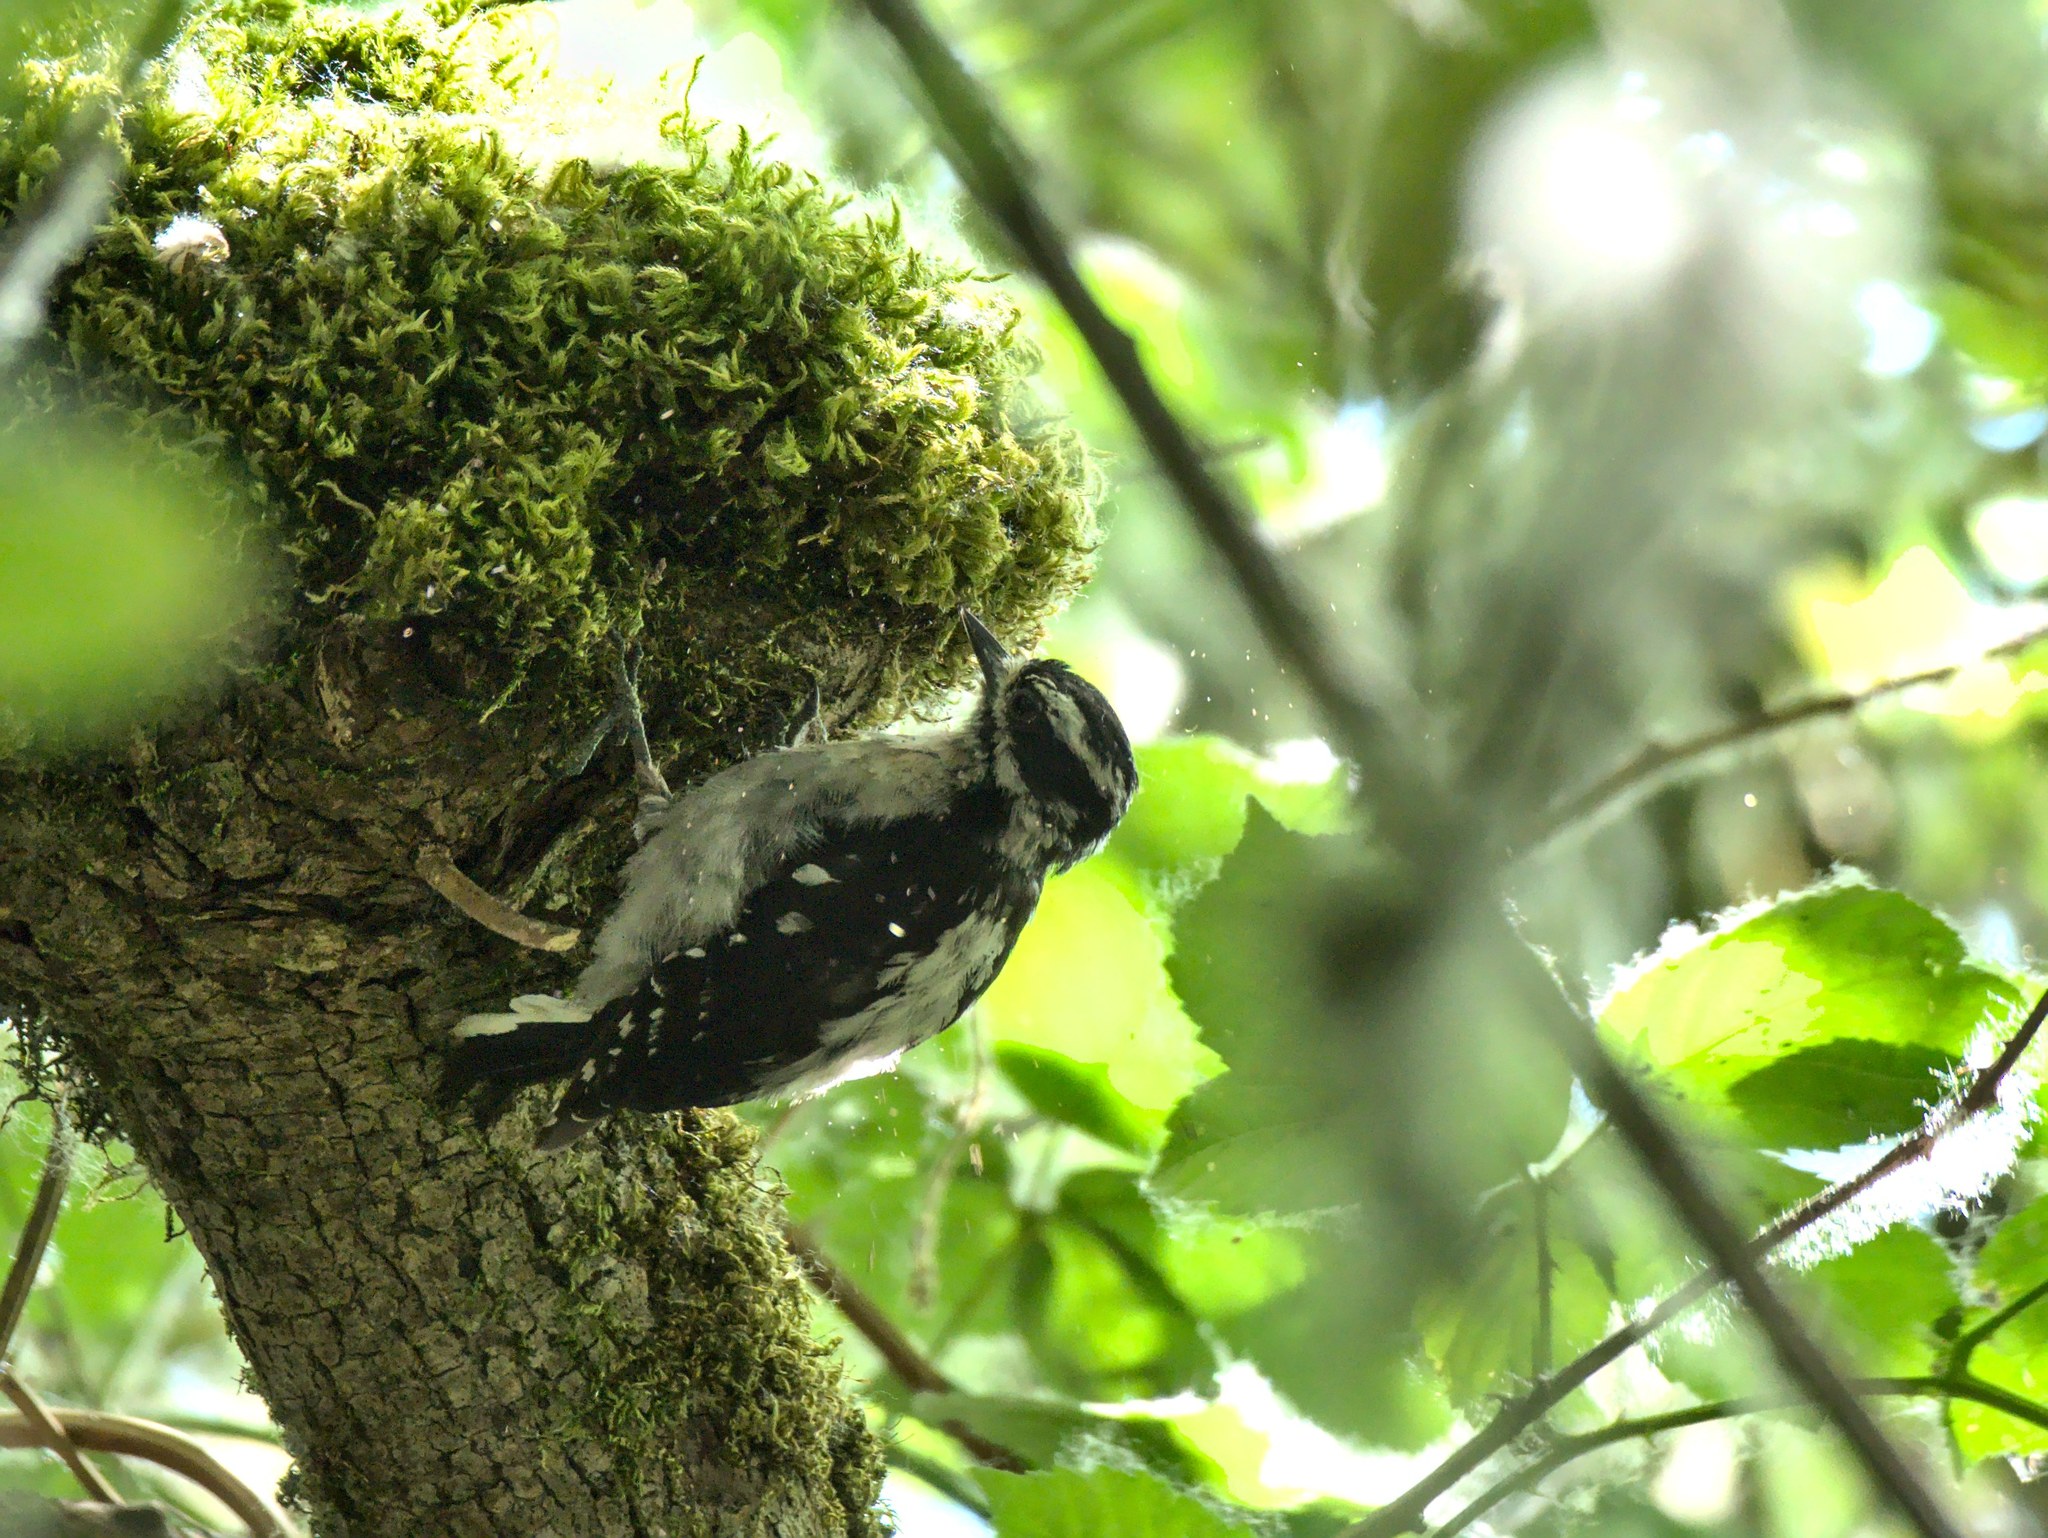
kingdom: Animalia
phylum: Chordata
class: Aves
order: Piciformes
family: Picidae
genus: Dryobates
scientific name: Dryobates pubescens
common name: Downy woodpecker
